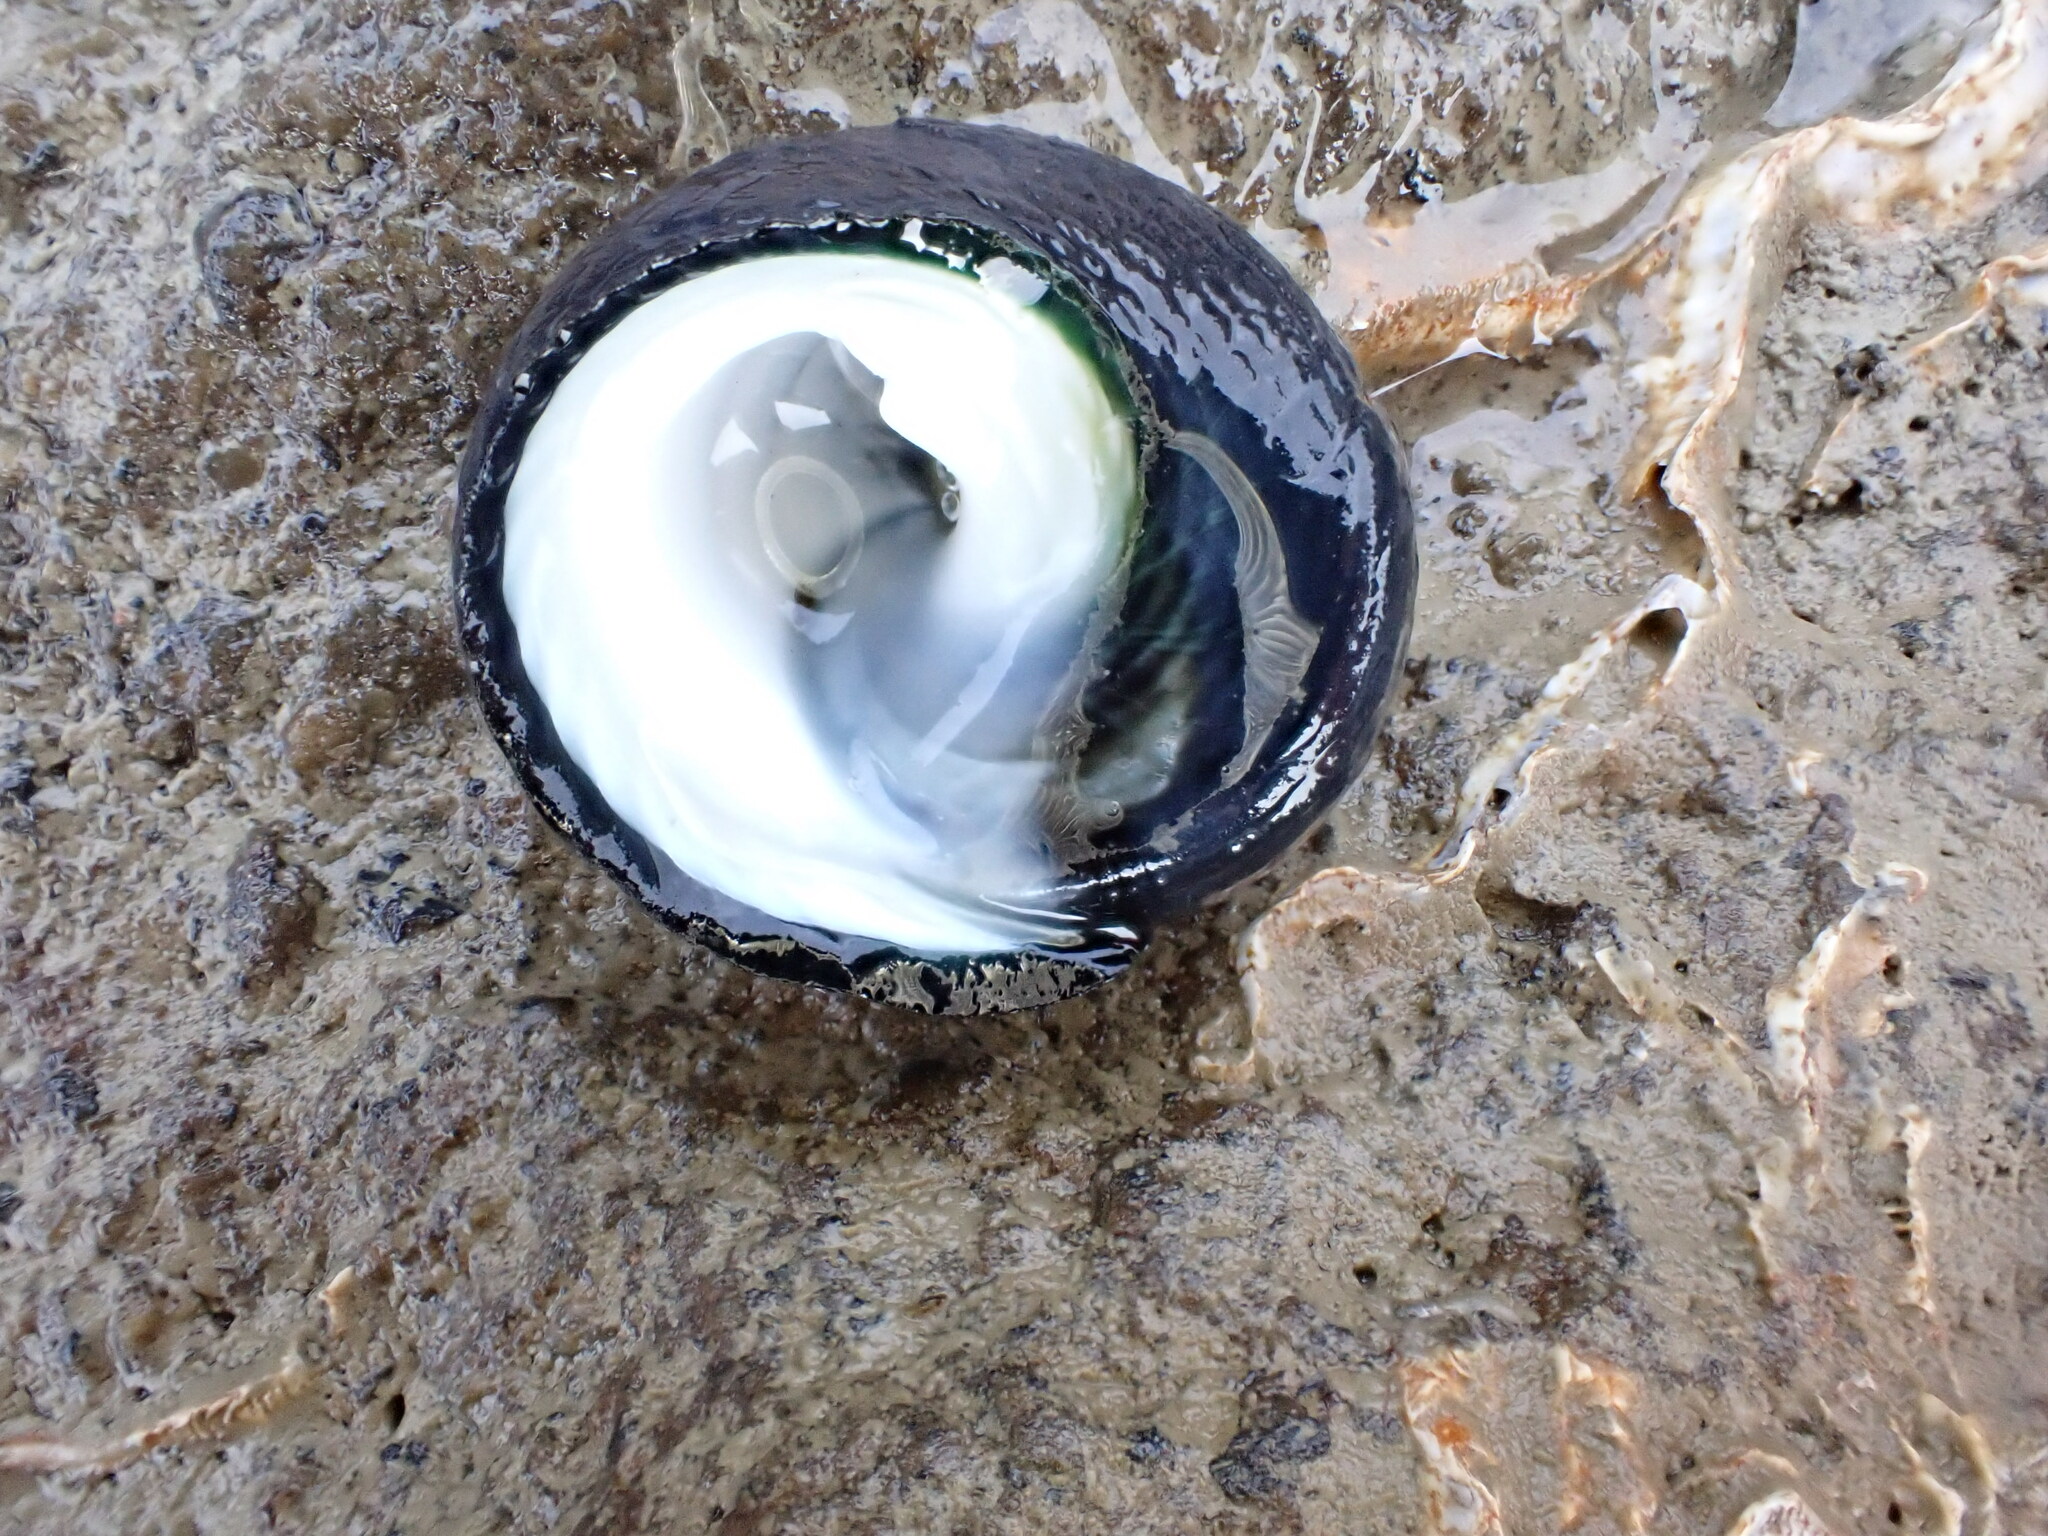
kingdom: Animalia
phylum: Mollusca
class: Gastropoda
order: Trochida
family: Trochidae
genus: Diloma
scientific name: Diloma aridum
